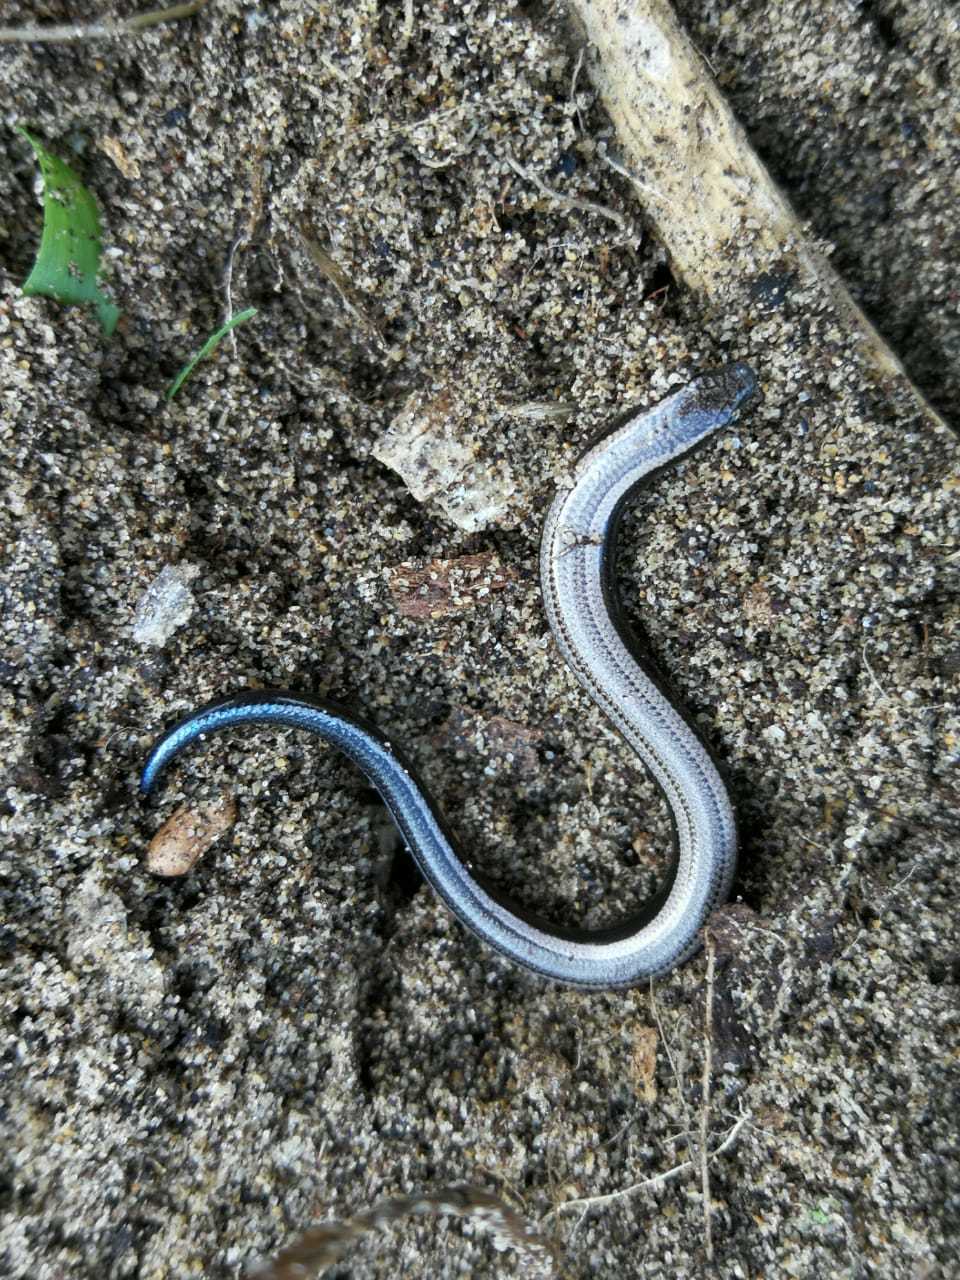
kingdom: Animalia
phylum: Chordata
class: Squamata
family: Scincidae
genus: Scelotes
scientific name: Scelotes anguineus
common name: Algoa dwarf burrowing skink
